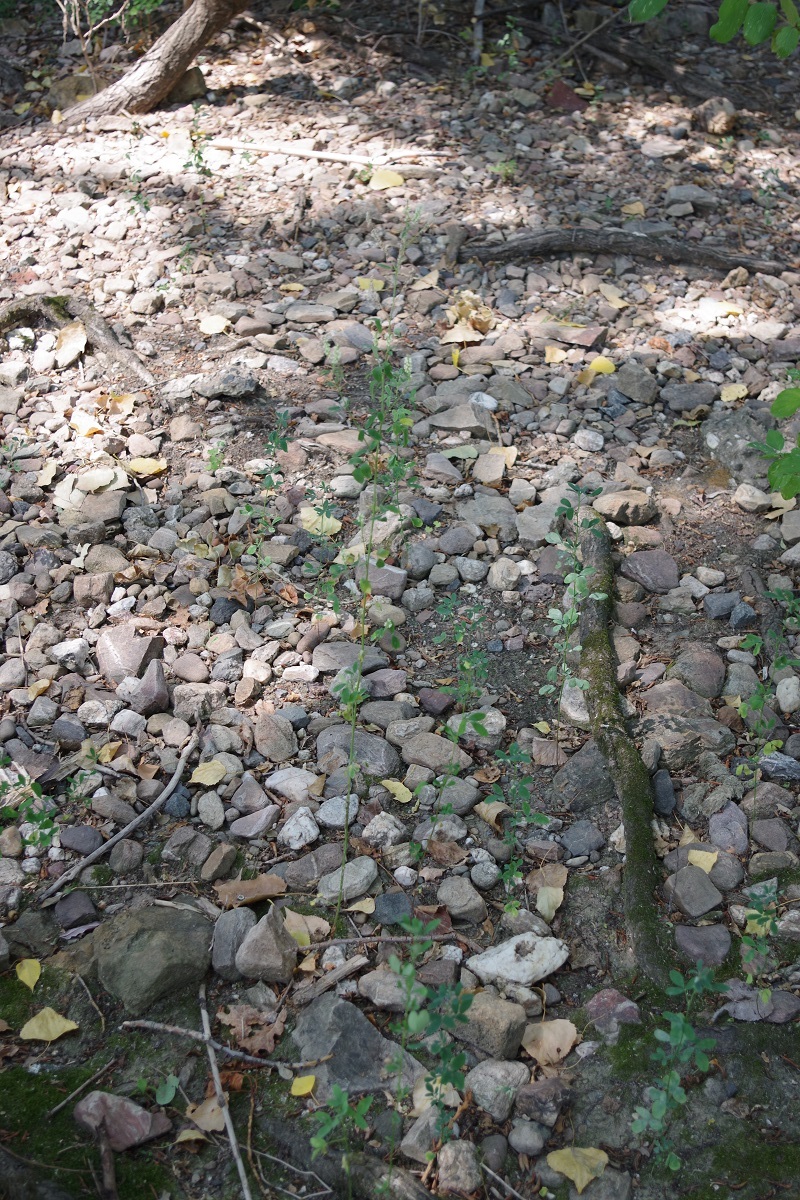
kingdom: Plantae
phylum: Tracheophyta
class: Magnoliopsida
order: Fabales
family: Fabaceae
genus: Melilotus
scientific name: Melilotus albus
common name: White melilot
